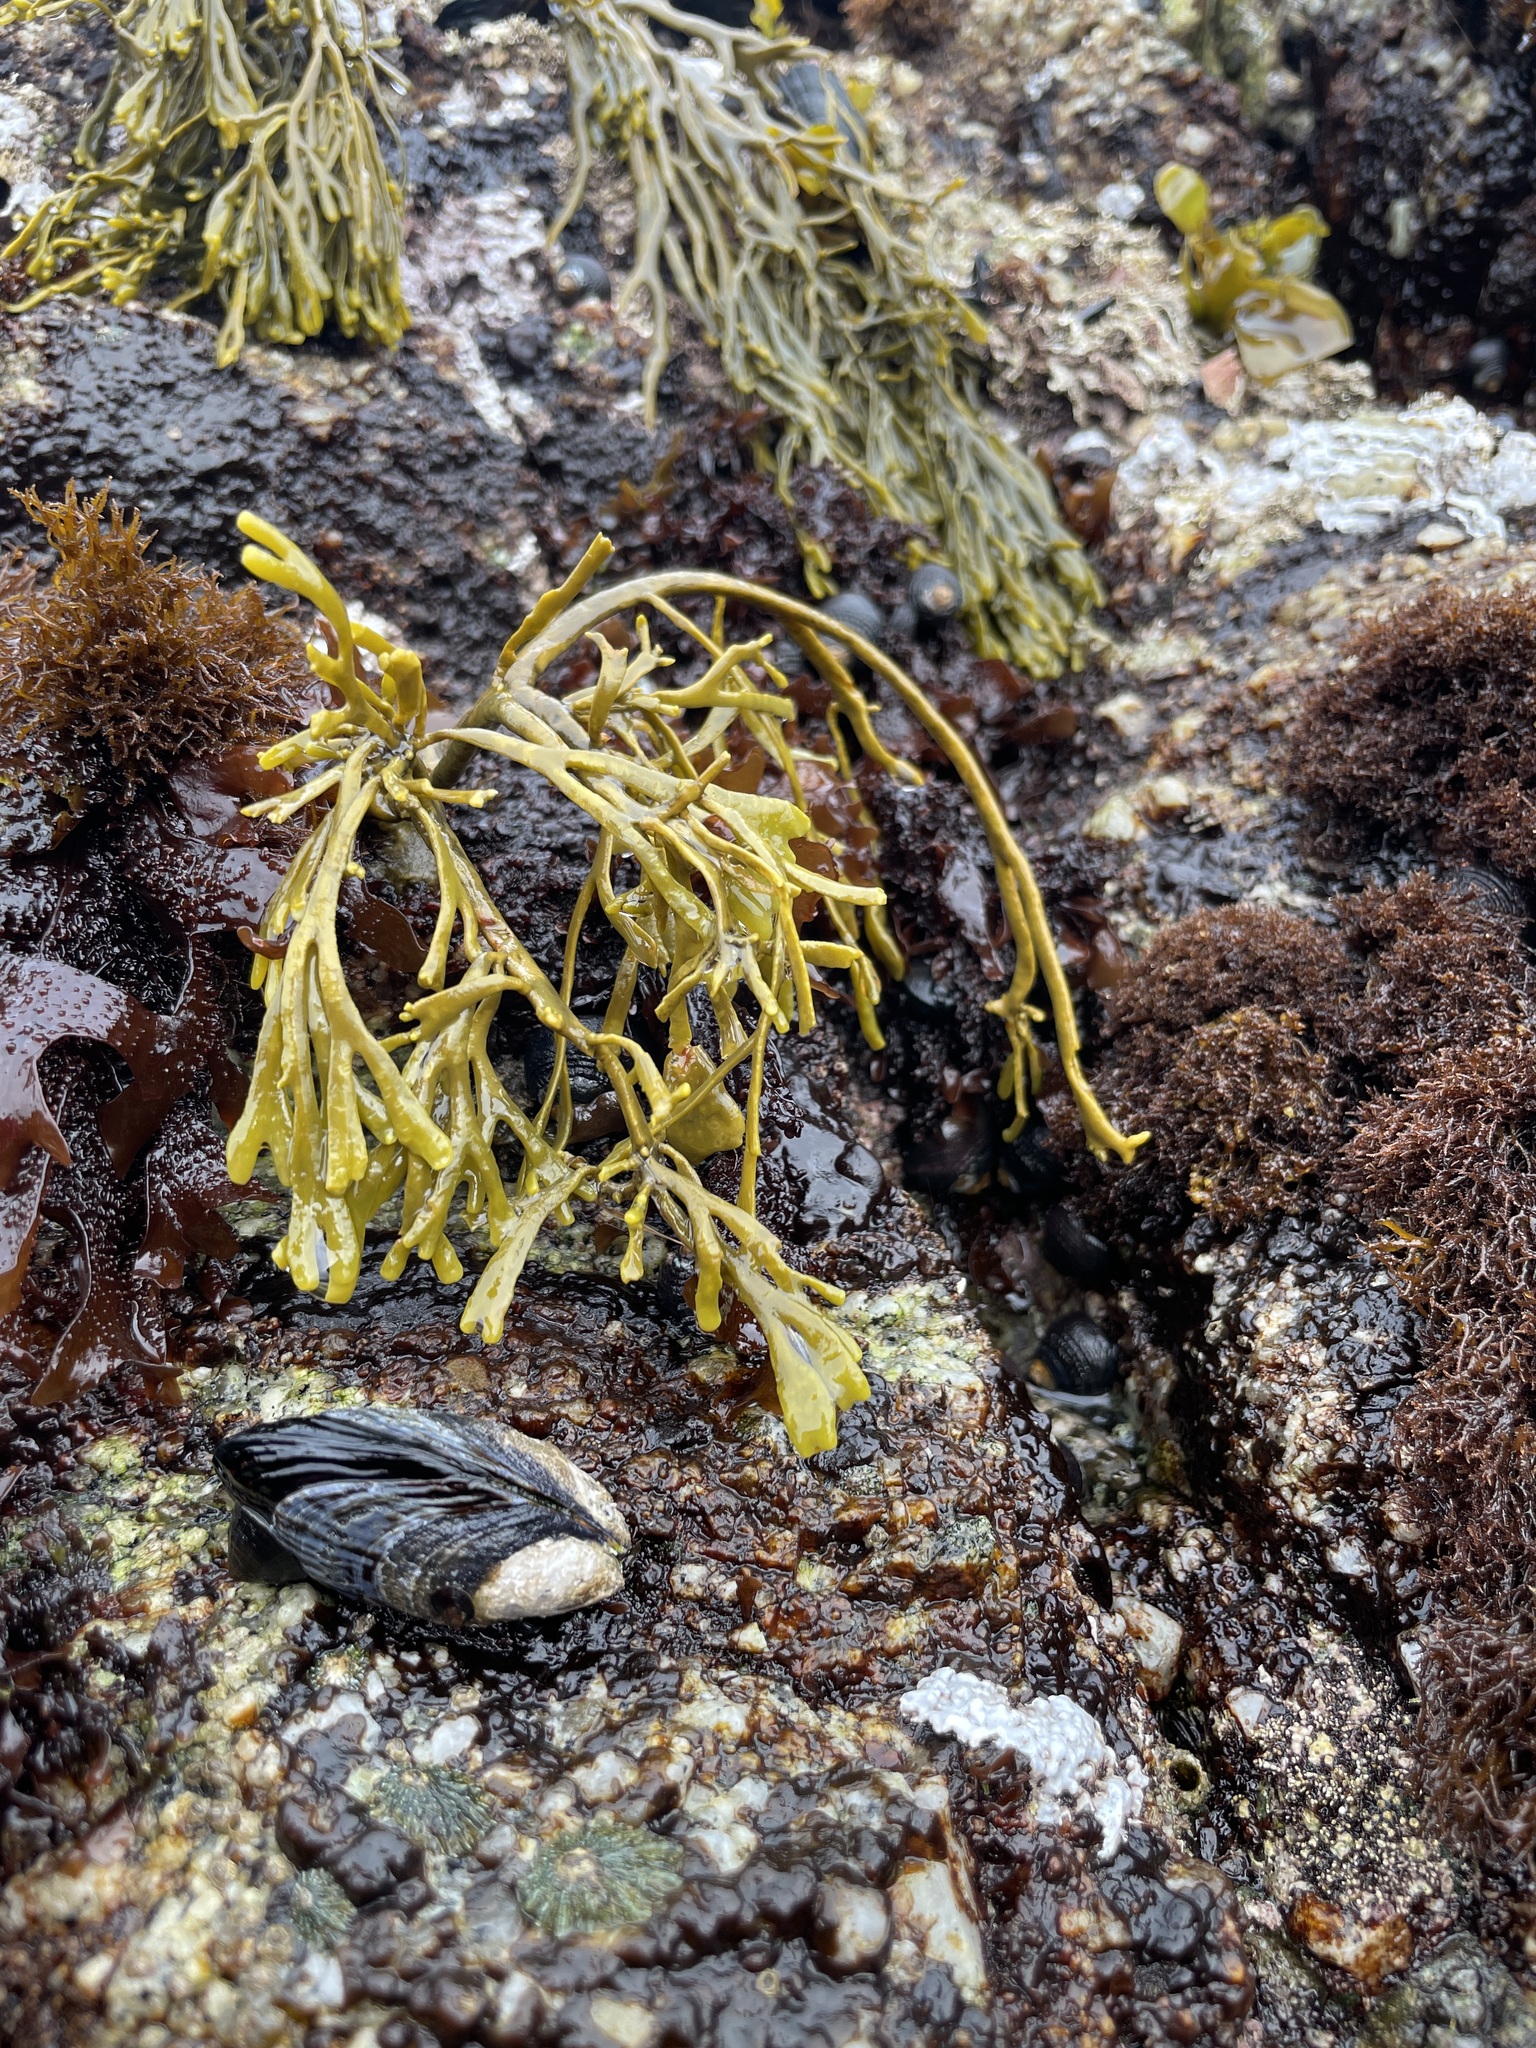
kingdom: Chromista
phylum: Ochrophyta
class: Phaeophyceae
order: Fucales
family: Fucaceae
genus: Silvetia
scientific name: Silvetia
